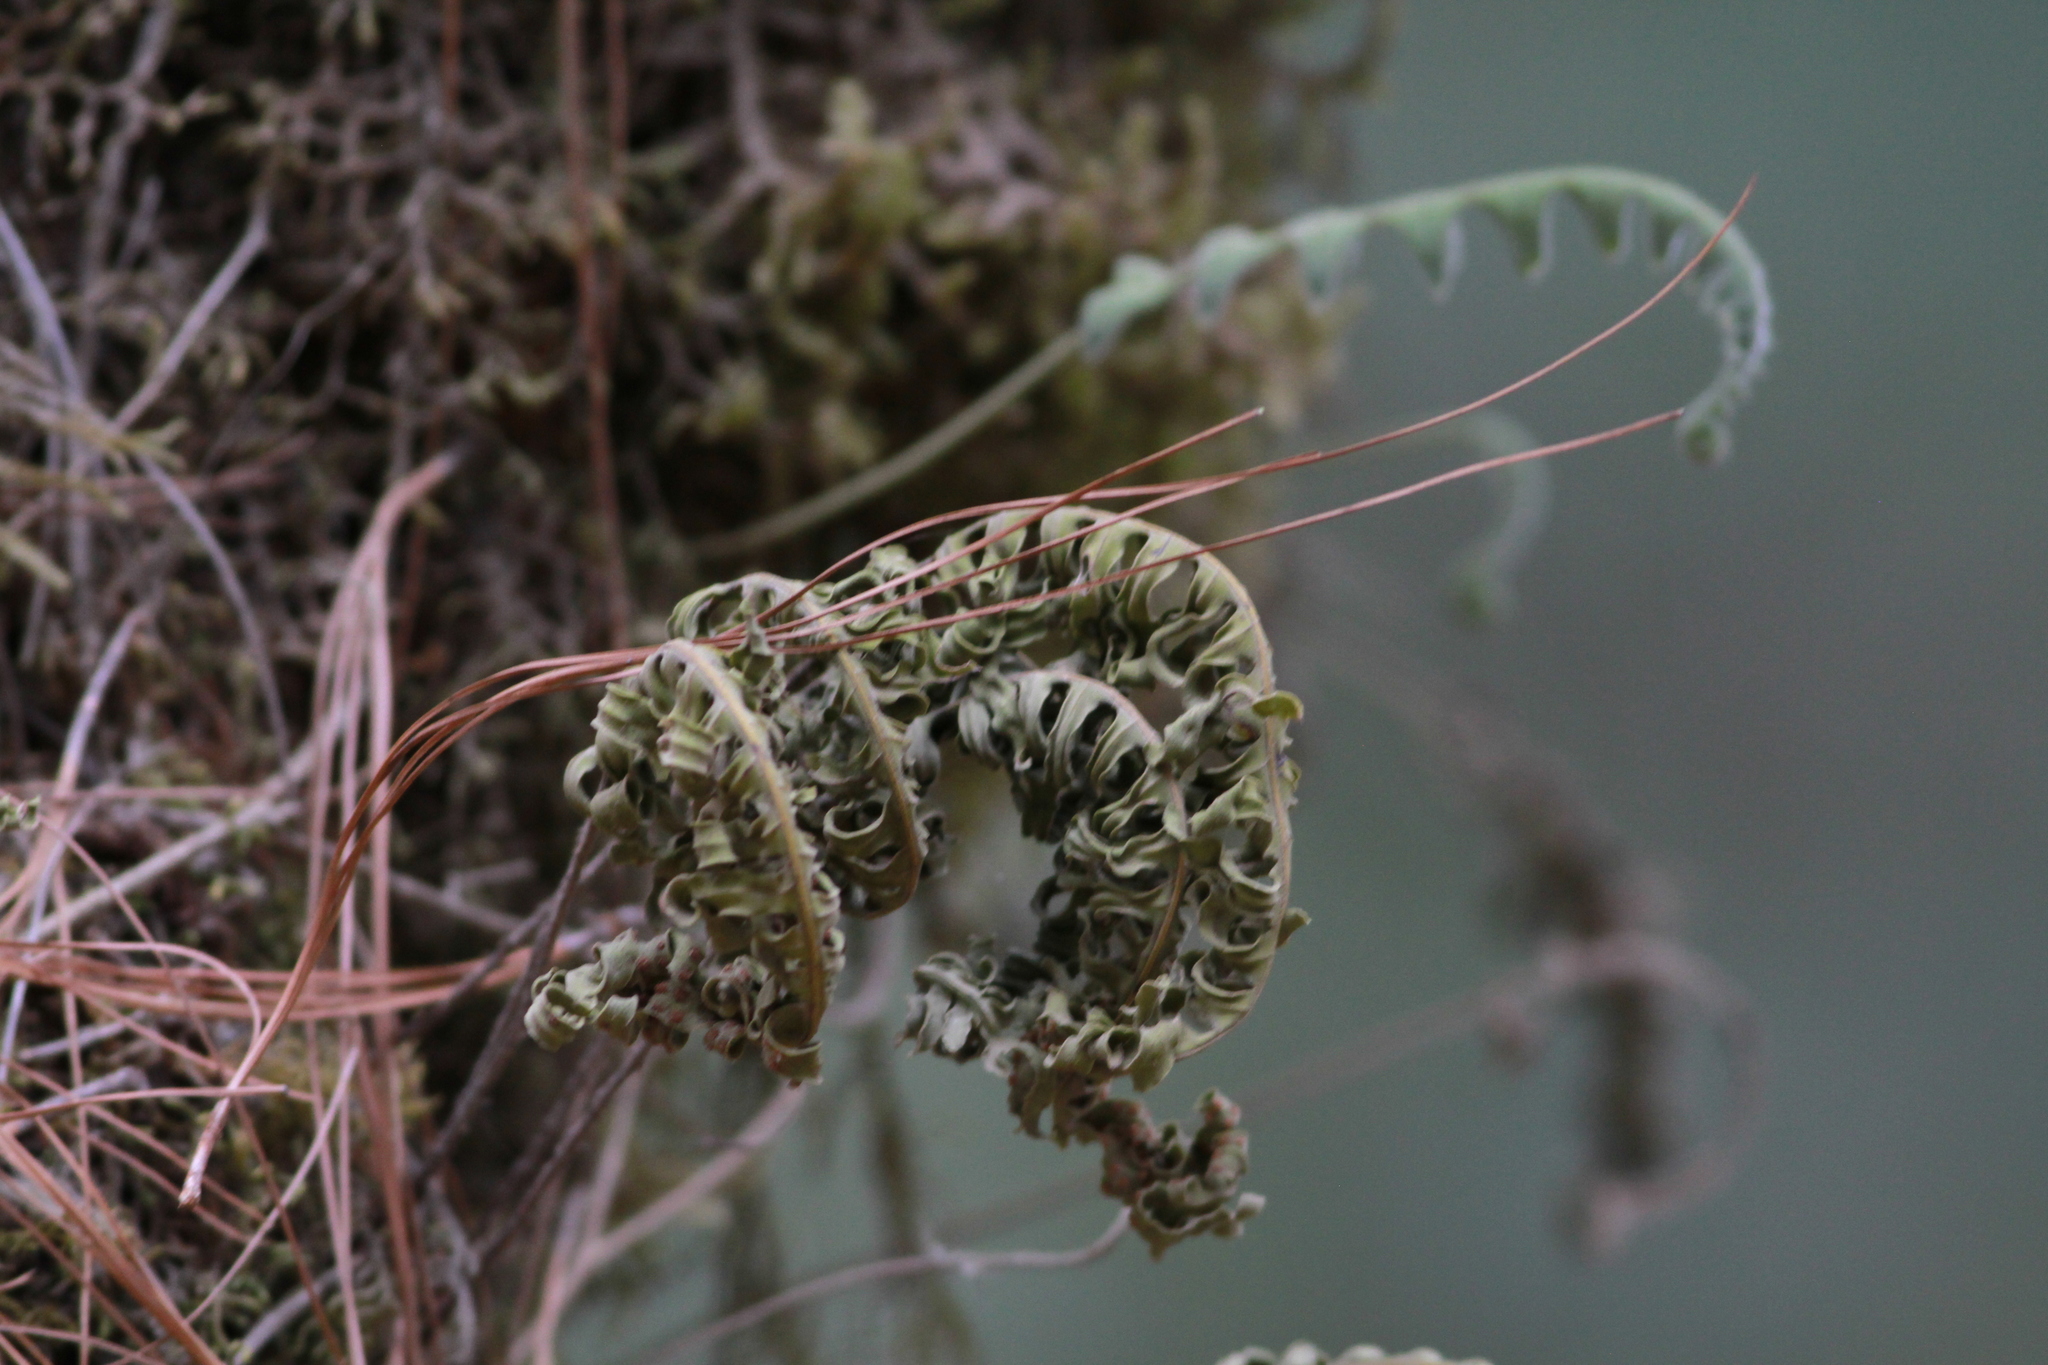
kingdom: Plantae
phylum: Tracheophyta
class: Polypodiopsida
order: Polypodiales
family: Polypodiaceae
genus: Pleopeltis
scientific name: Pleopeltis polypodioides
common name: Resurrection fern
